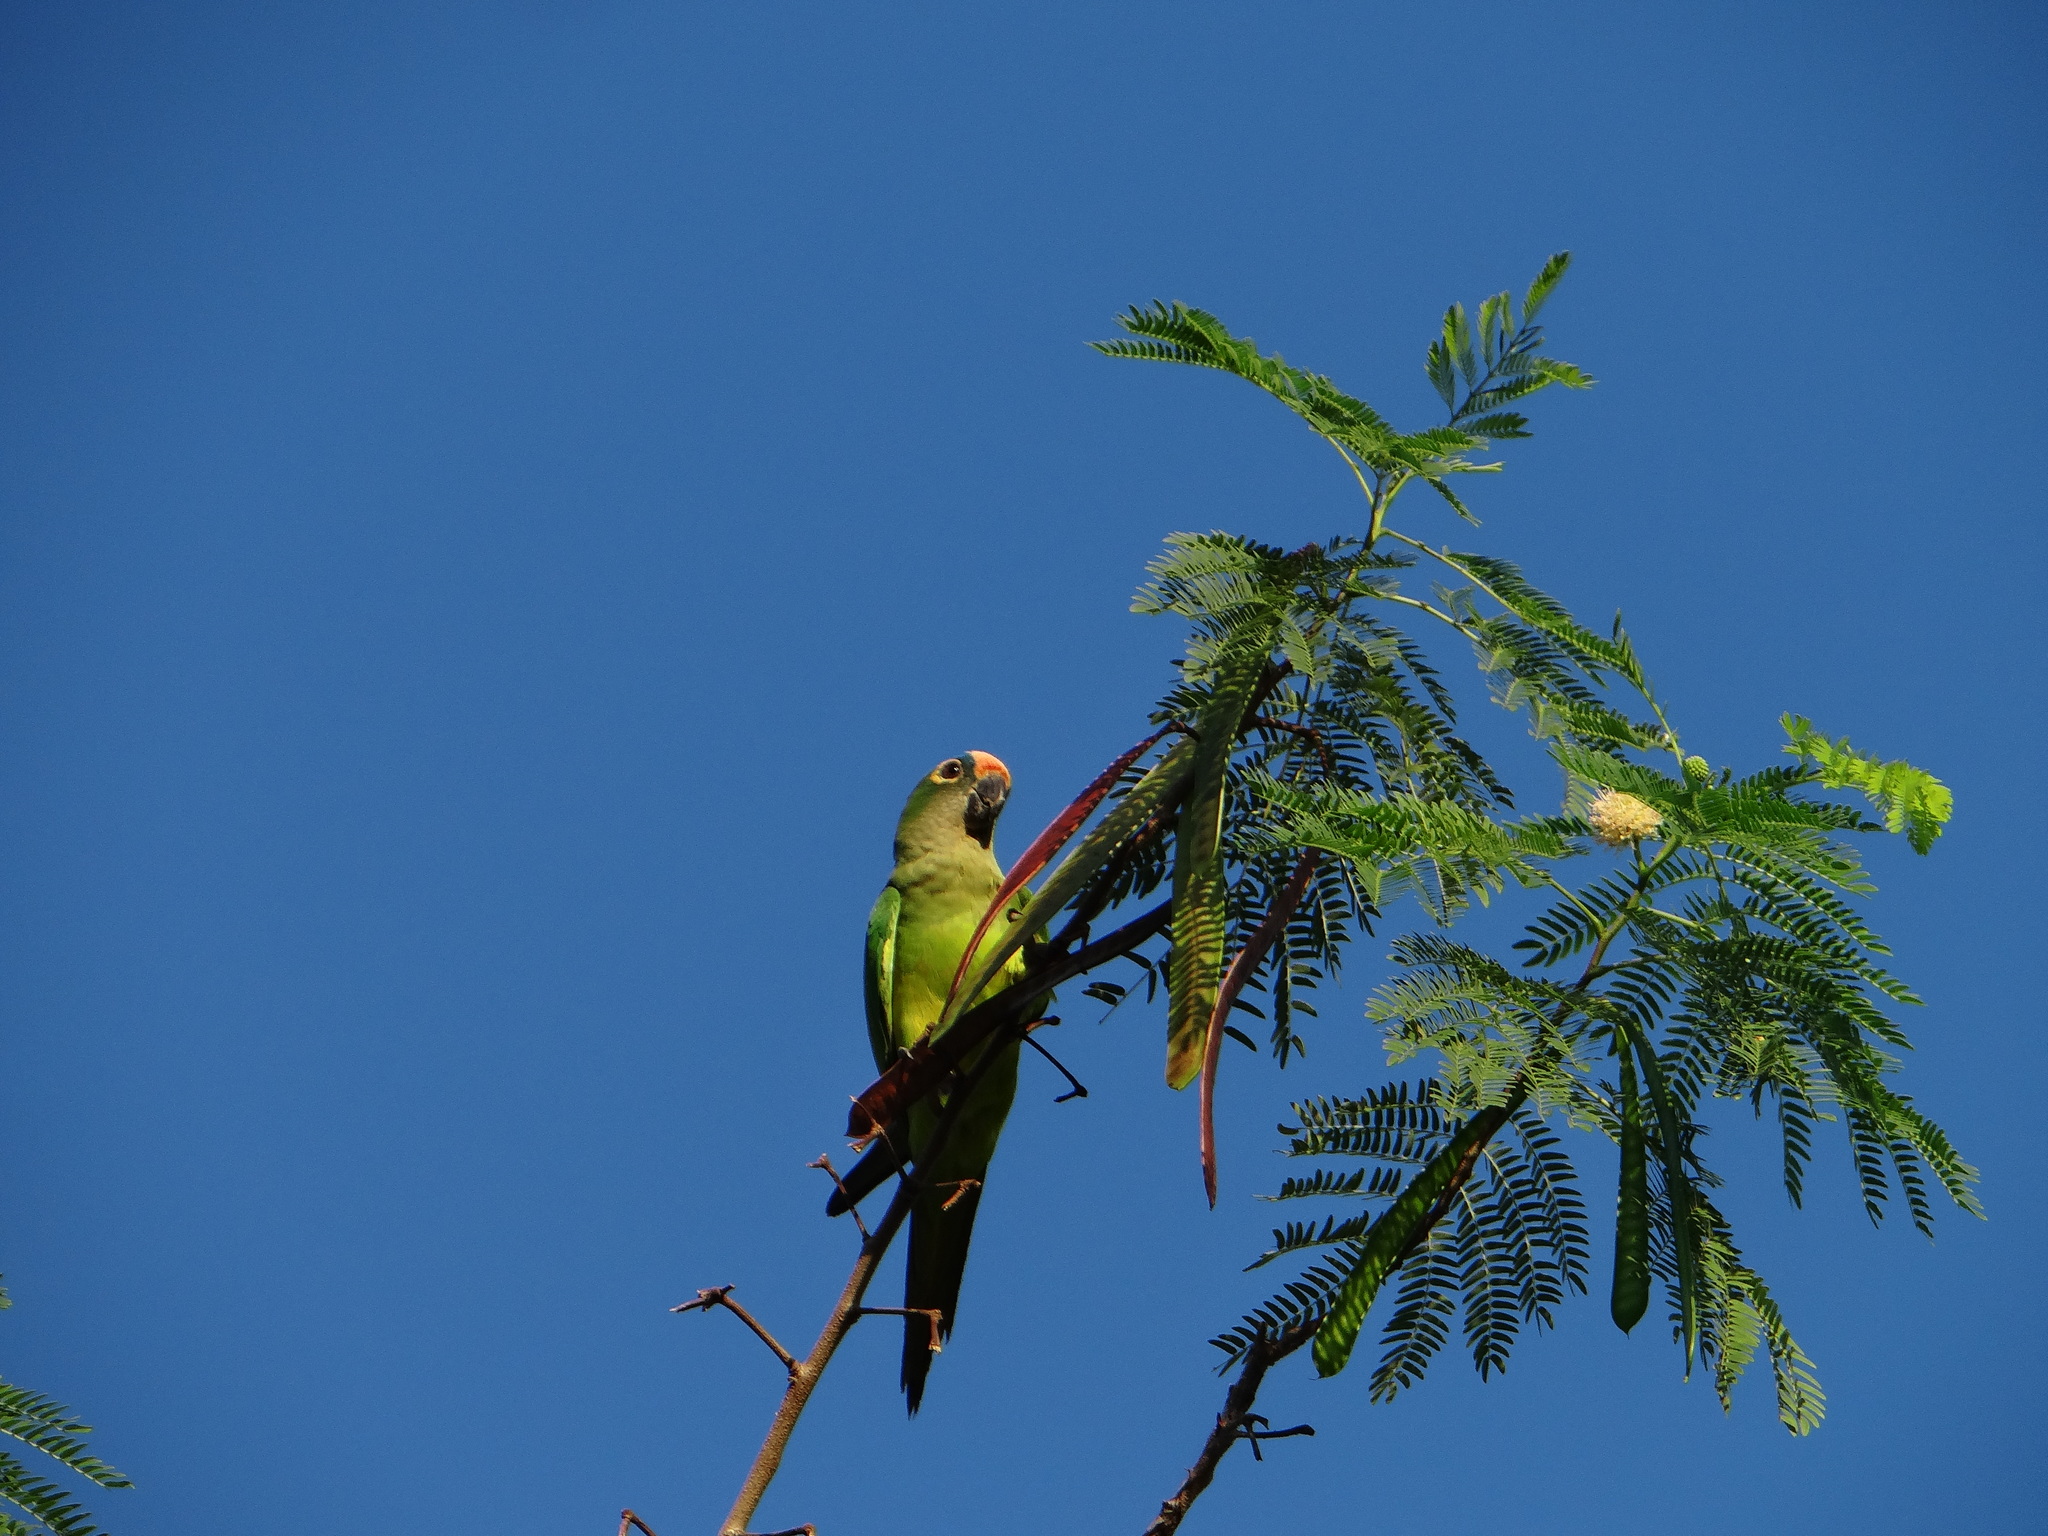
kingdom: Animalia
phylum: Chordata
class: Aves
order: Psittaciformes
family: Psittacidae
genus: Aratinga
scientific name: Aratinga aurea
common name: Peach-fronted parakeet
